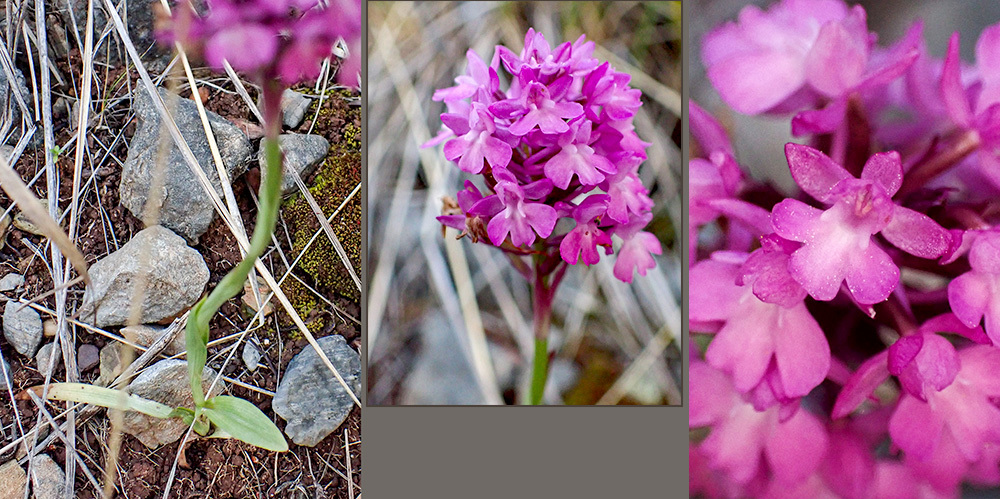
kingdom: Plantae
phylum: Tracheophyta
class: Liliopsida
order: Asparagales
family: Orchidaceae
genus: Anacamptis
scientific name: Anacamptis pyramidalis
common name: Pyramidal orchid
